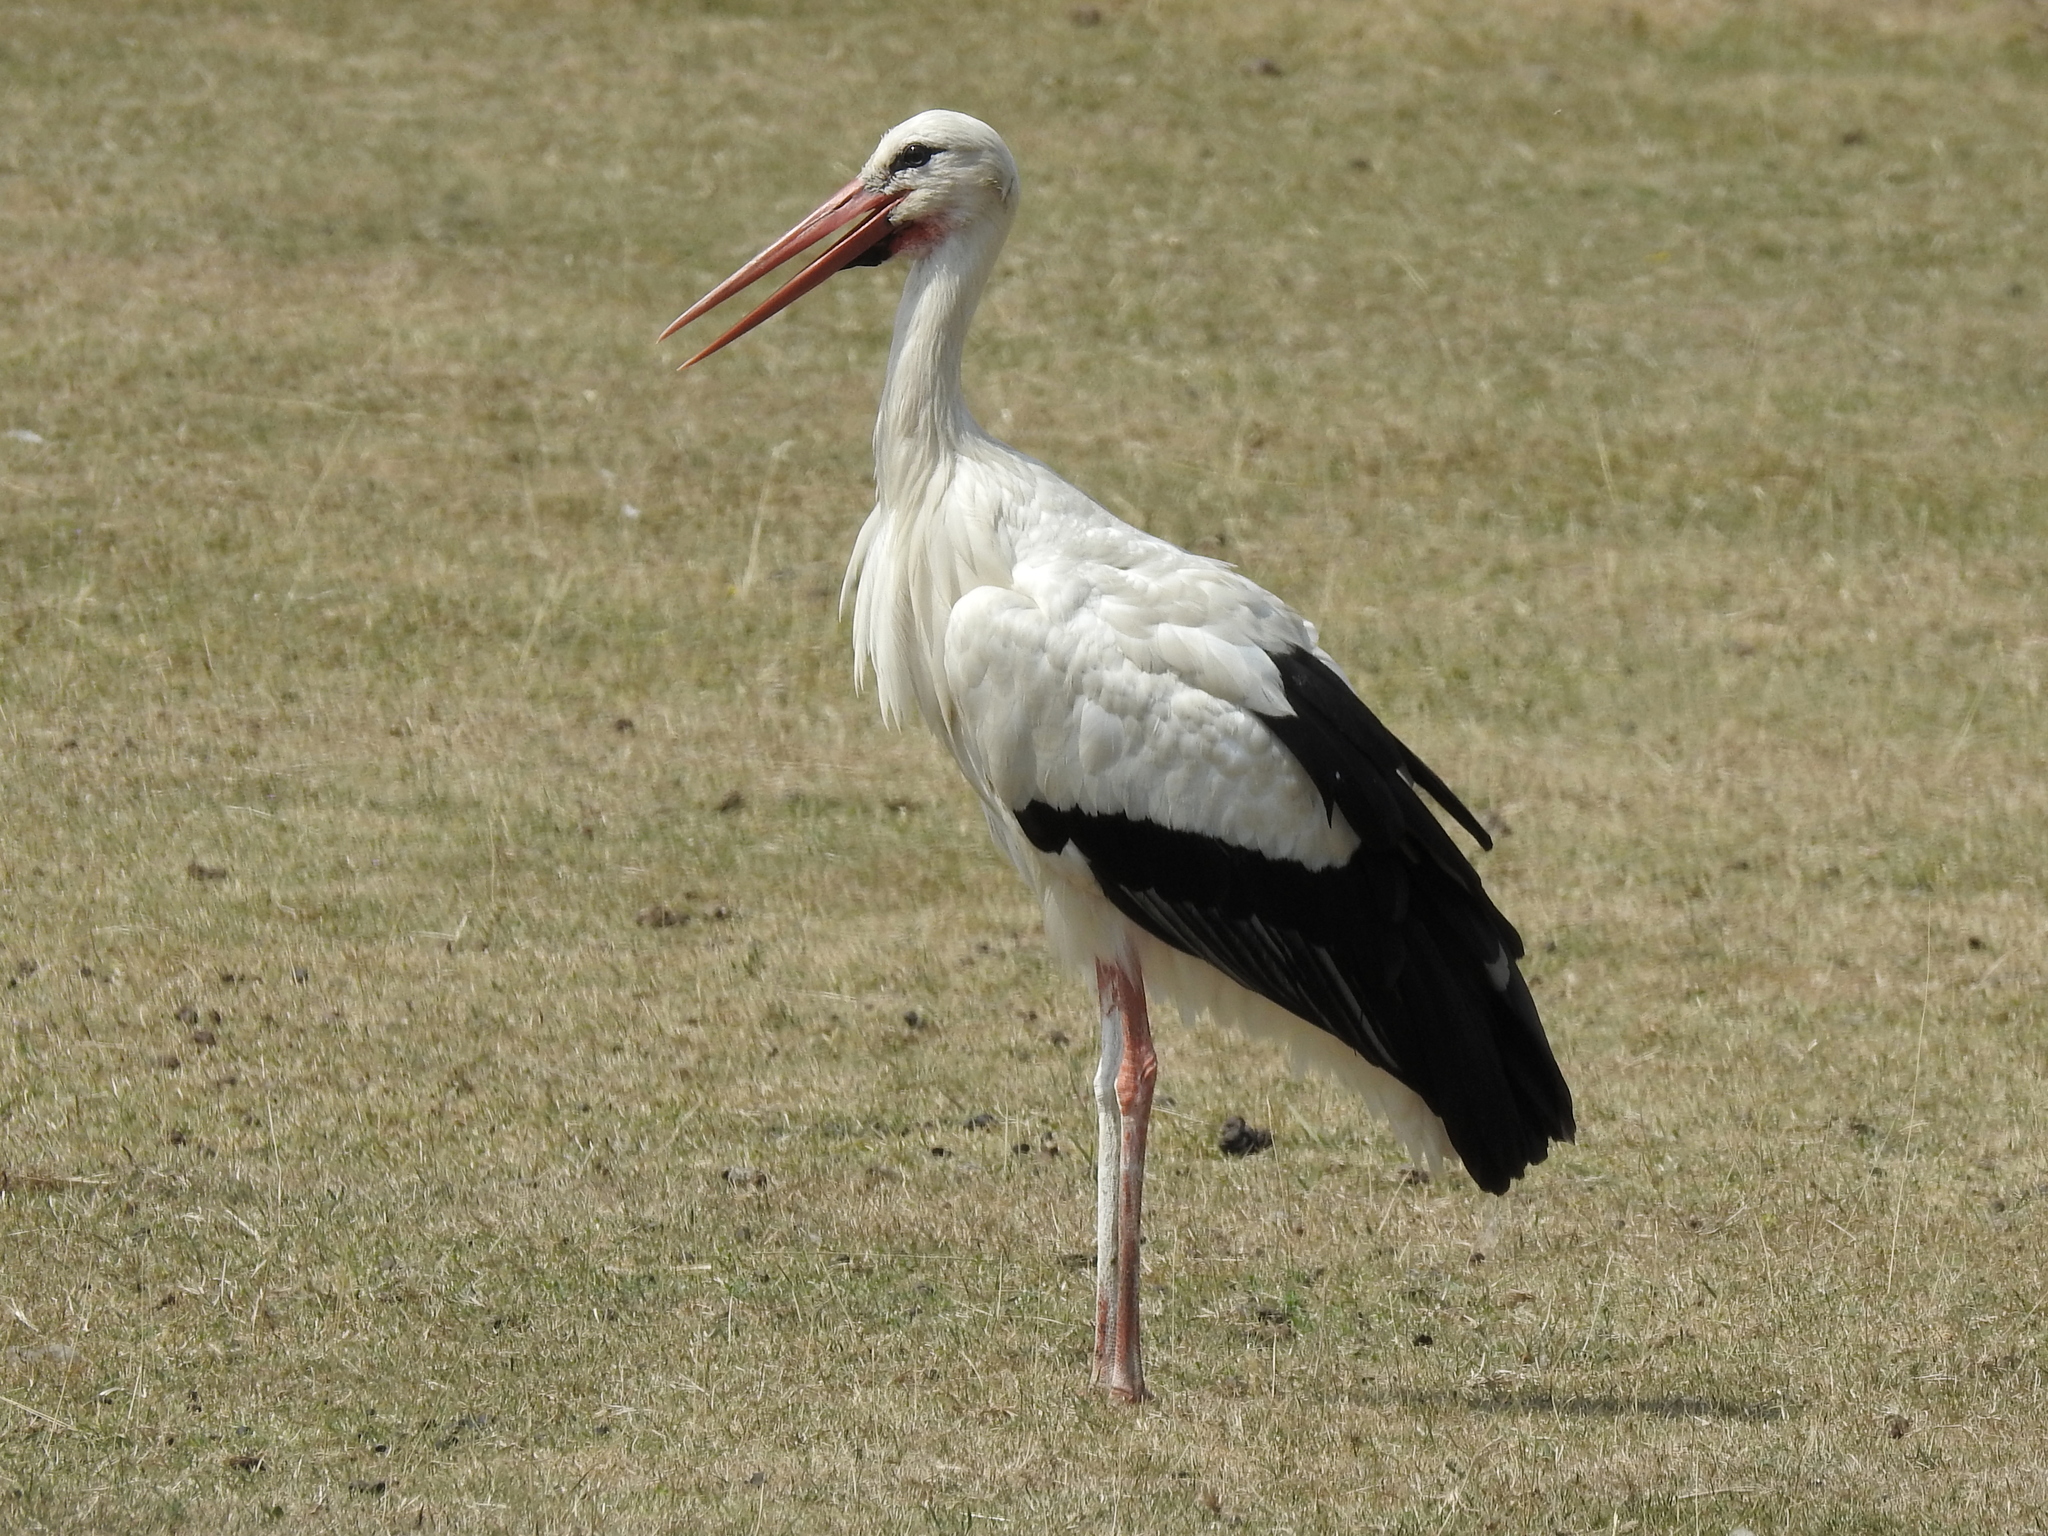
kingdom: Animalia
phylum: Chordata
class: Aves
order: Ciconiiformes
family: Ciconiidae
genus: Ciconia
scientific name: Ciconia ciconia
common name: White stork
